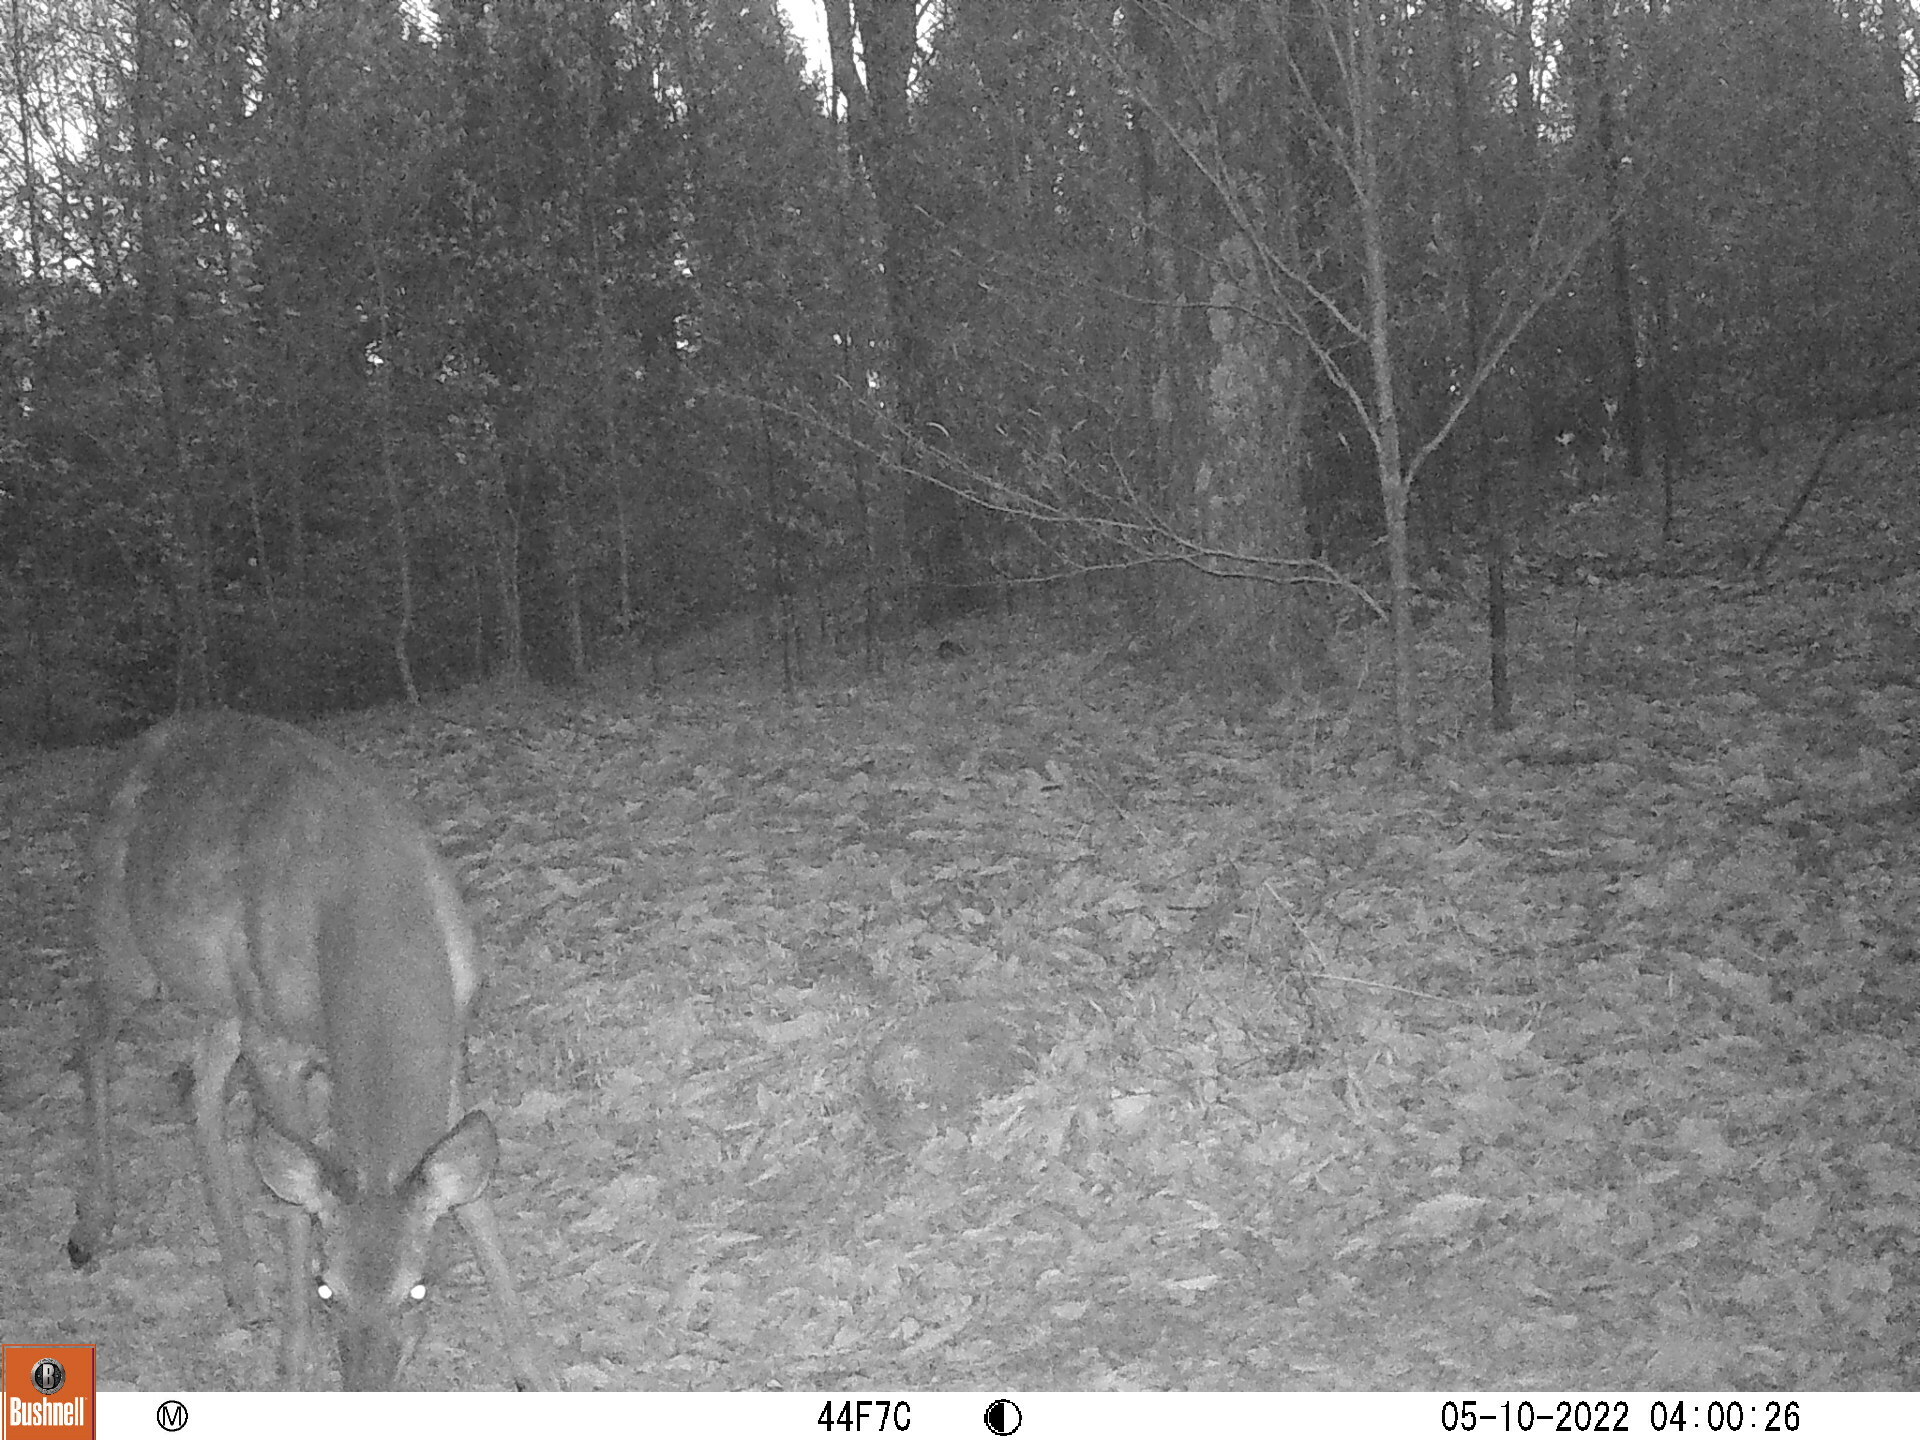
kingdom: Animalia
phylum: Chordata
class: Mammalia
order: Artiodactyla
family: Cervidae
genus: Odocoileus
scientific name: Odocoileus virginianus
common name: White-tailed deer
